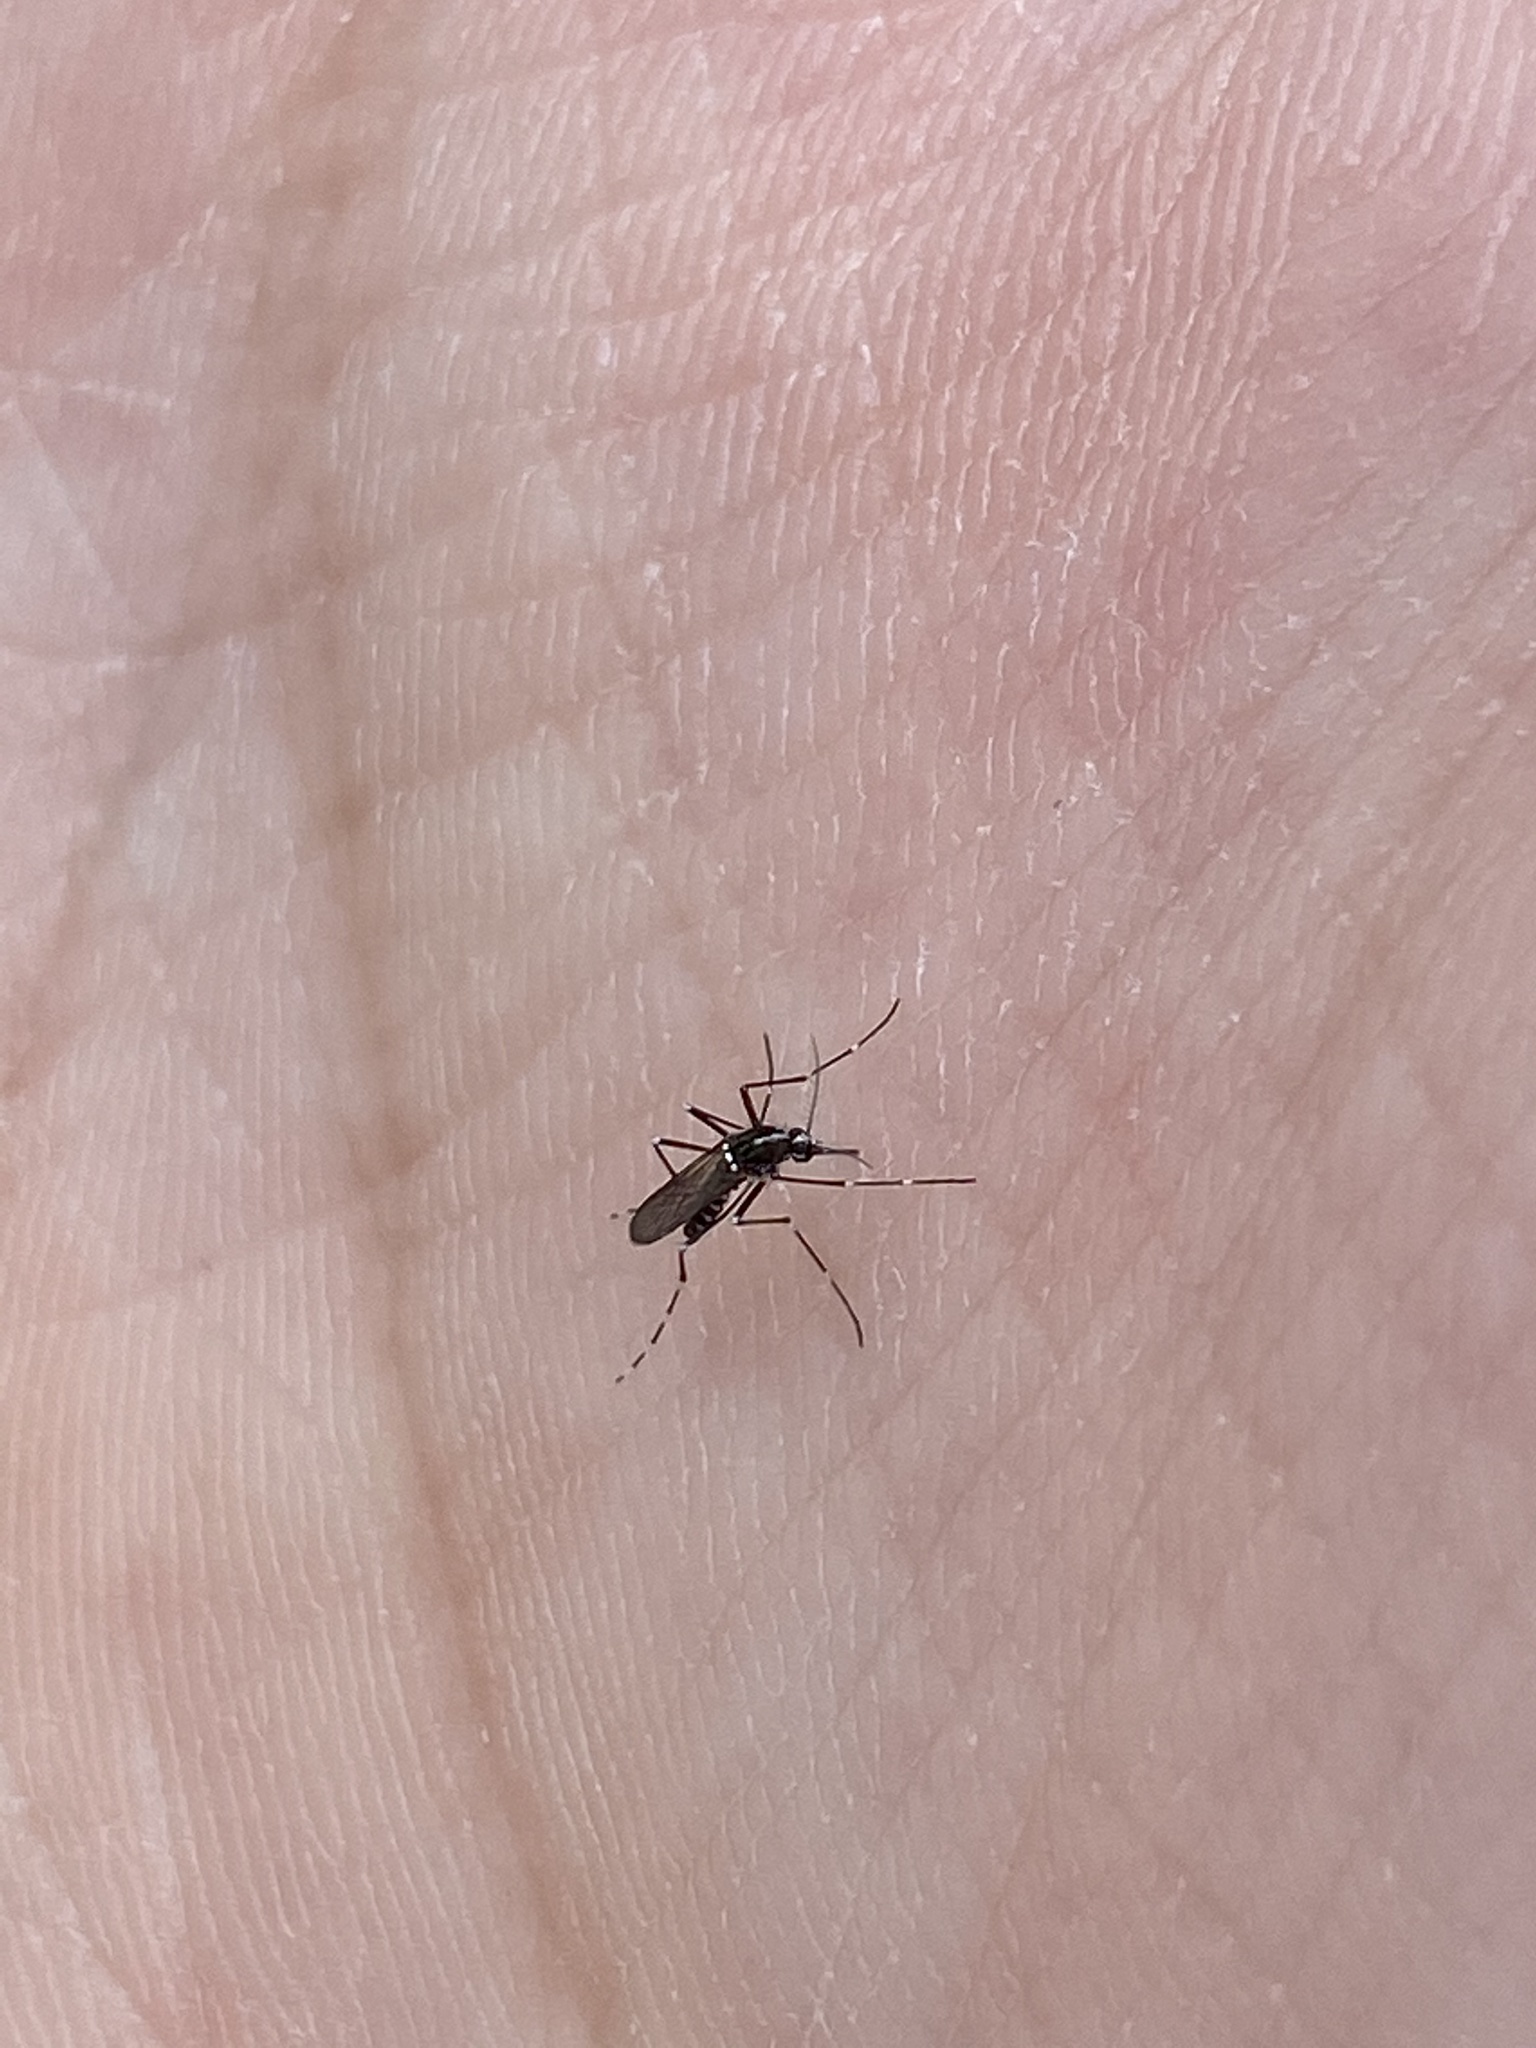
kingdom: Animalia
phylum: Arthropoda
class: Insecta
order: Diptera
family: Culicidae
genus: Aedes
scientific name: Aedes albopictus
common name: Tiger mosquito
